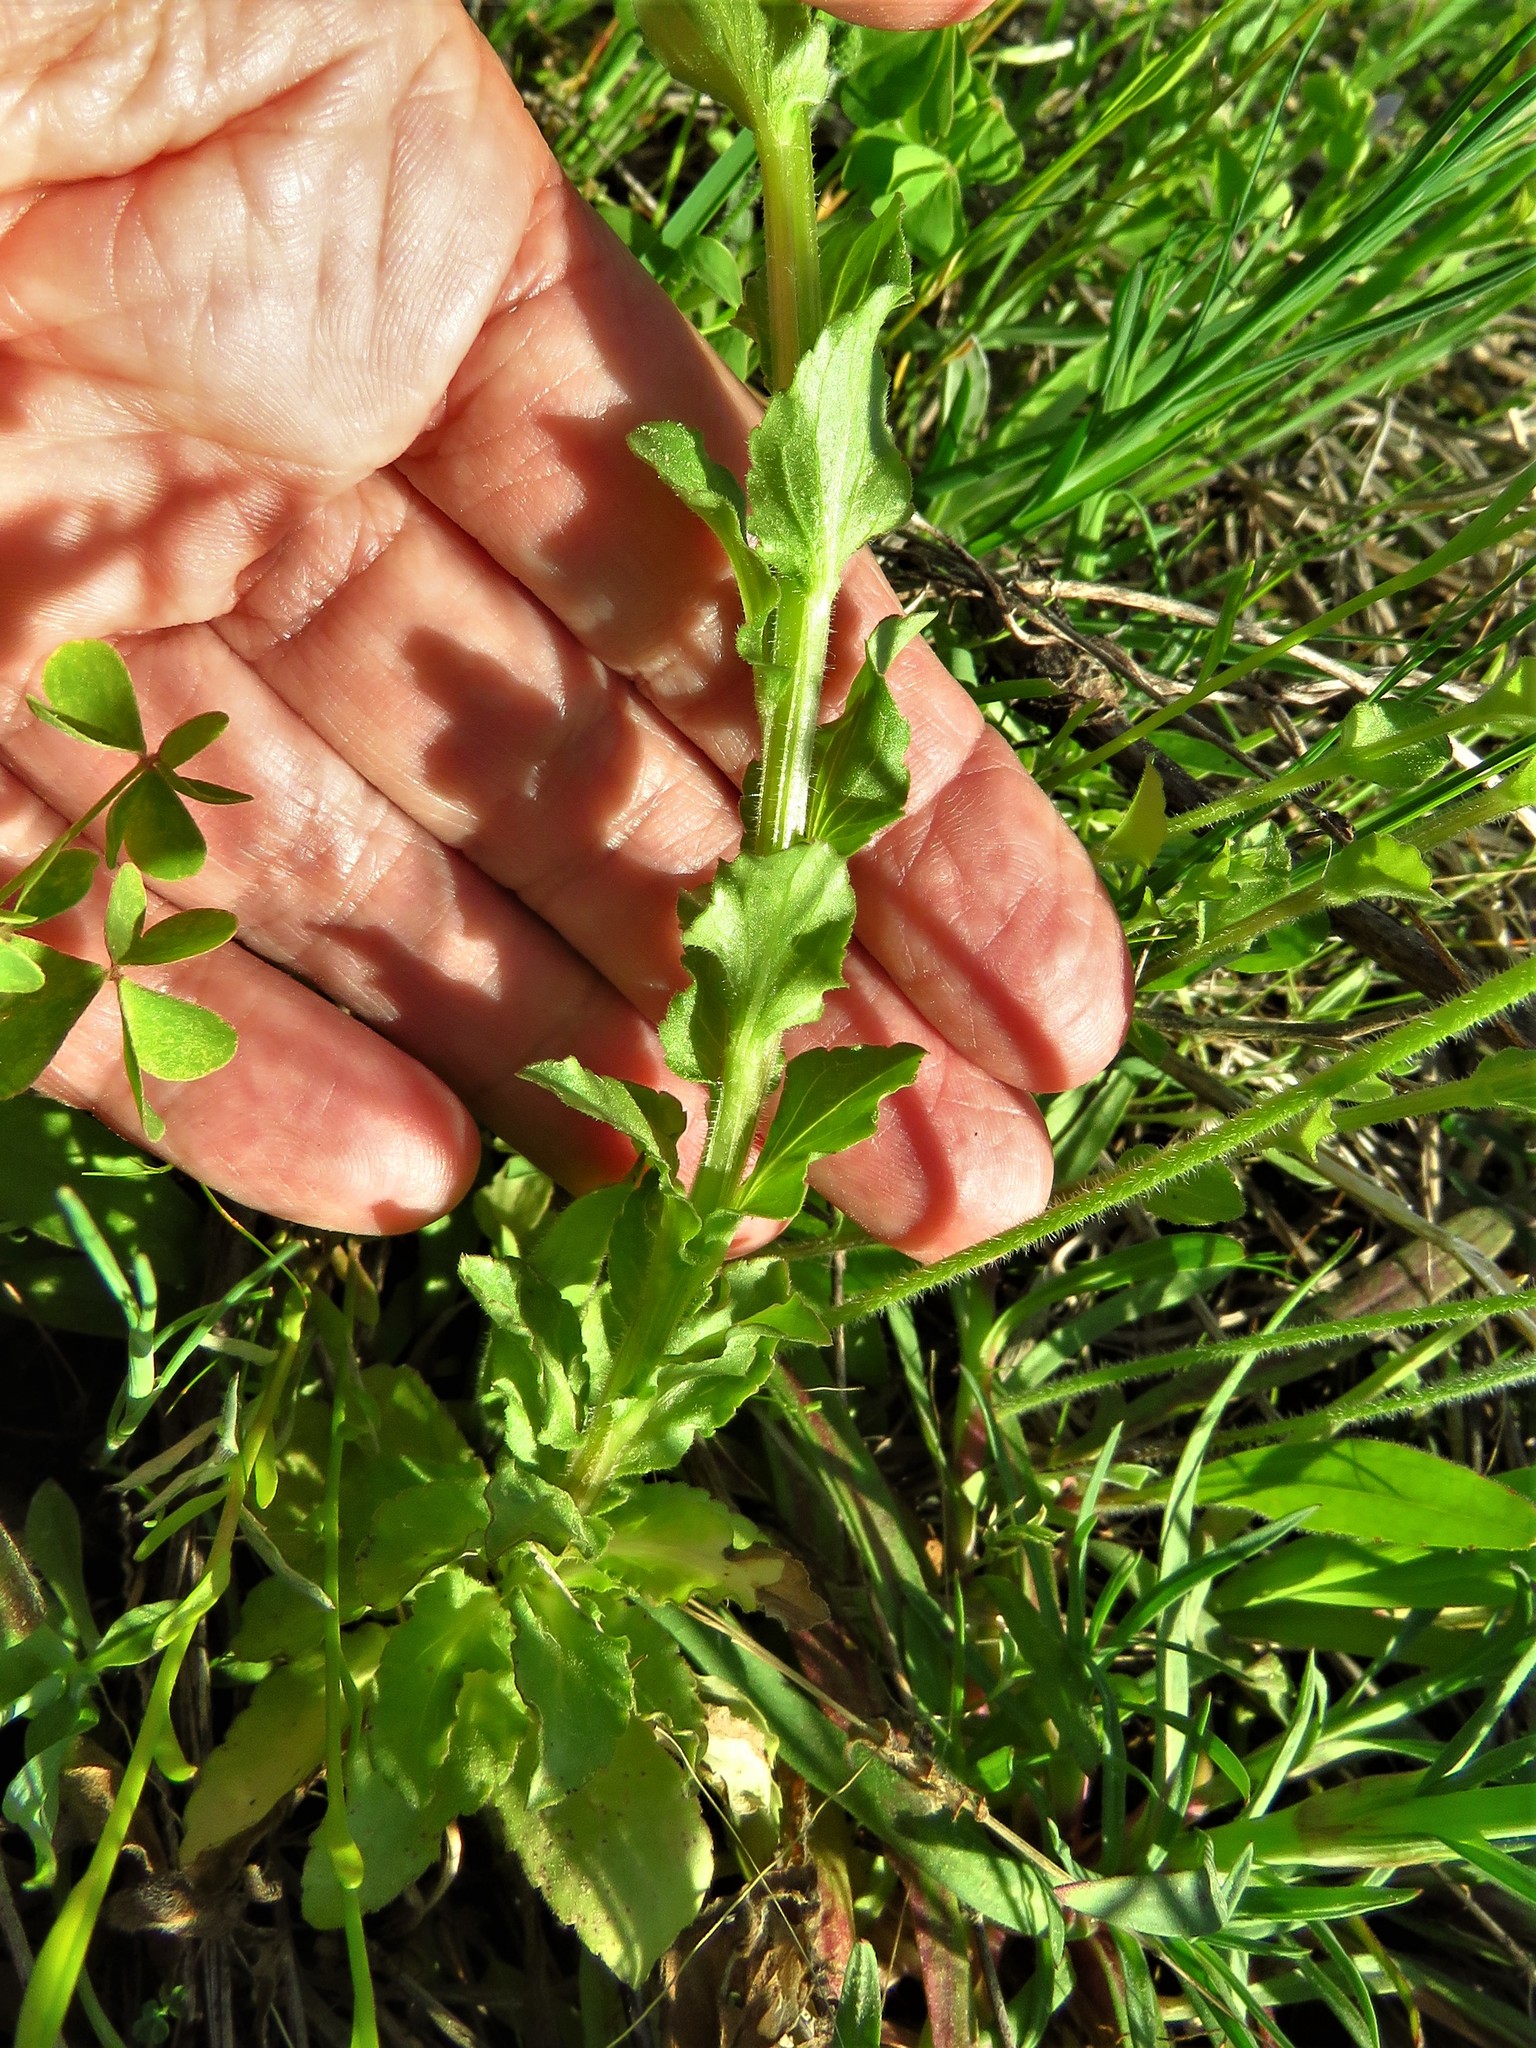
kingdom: Plantae
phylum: Tracheophyta
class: Magnoliopsida
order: Asterales
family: Campanulaceae
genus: Triodanis
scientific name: Triodanis perfoliata
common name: Clasping venus' looking-glass
